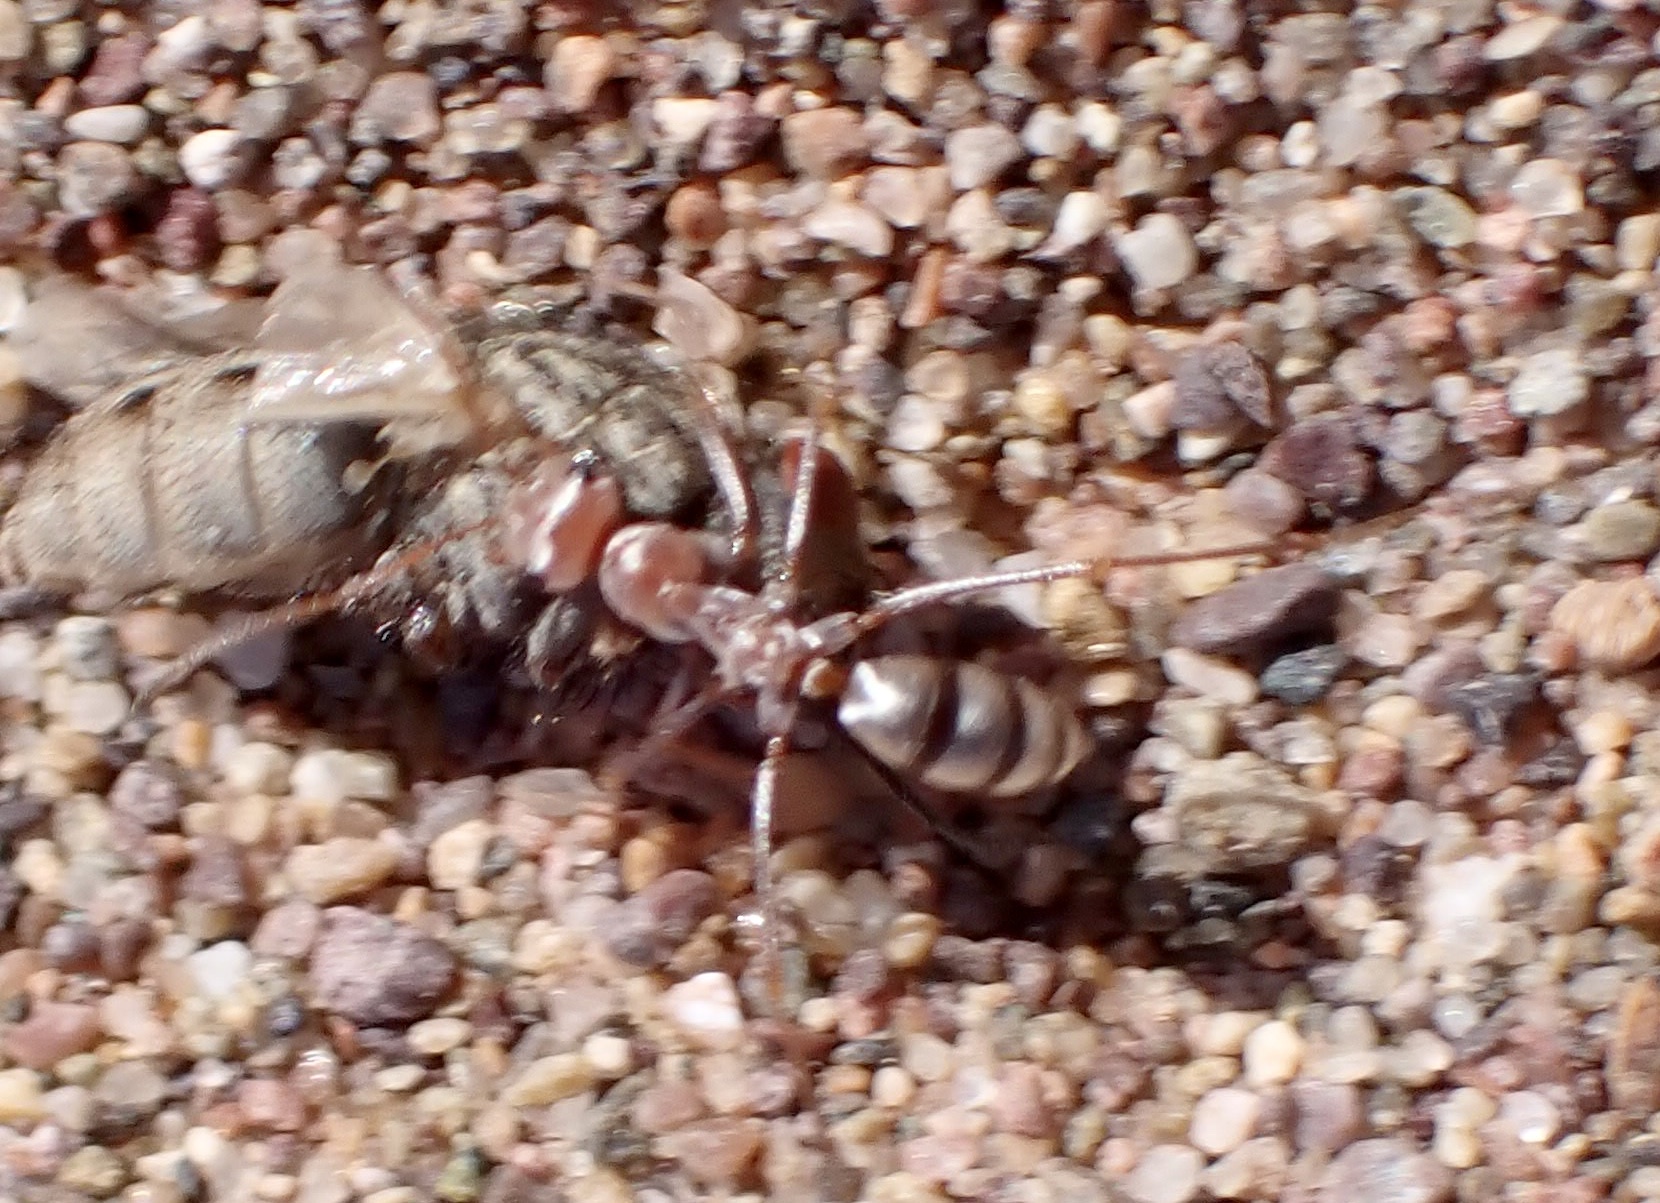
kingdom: Animalia
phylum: Arthropoda
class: Insecta
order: Hymenoptera
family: Formicidae
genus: Cataglyphis
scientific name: Cataglyphis bombycinus
